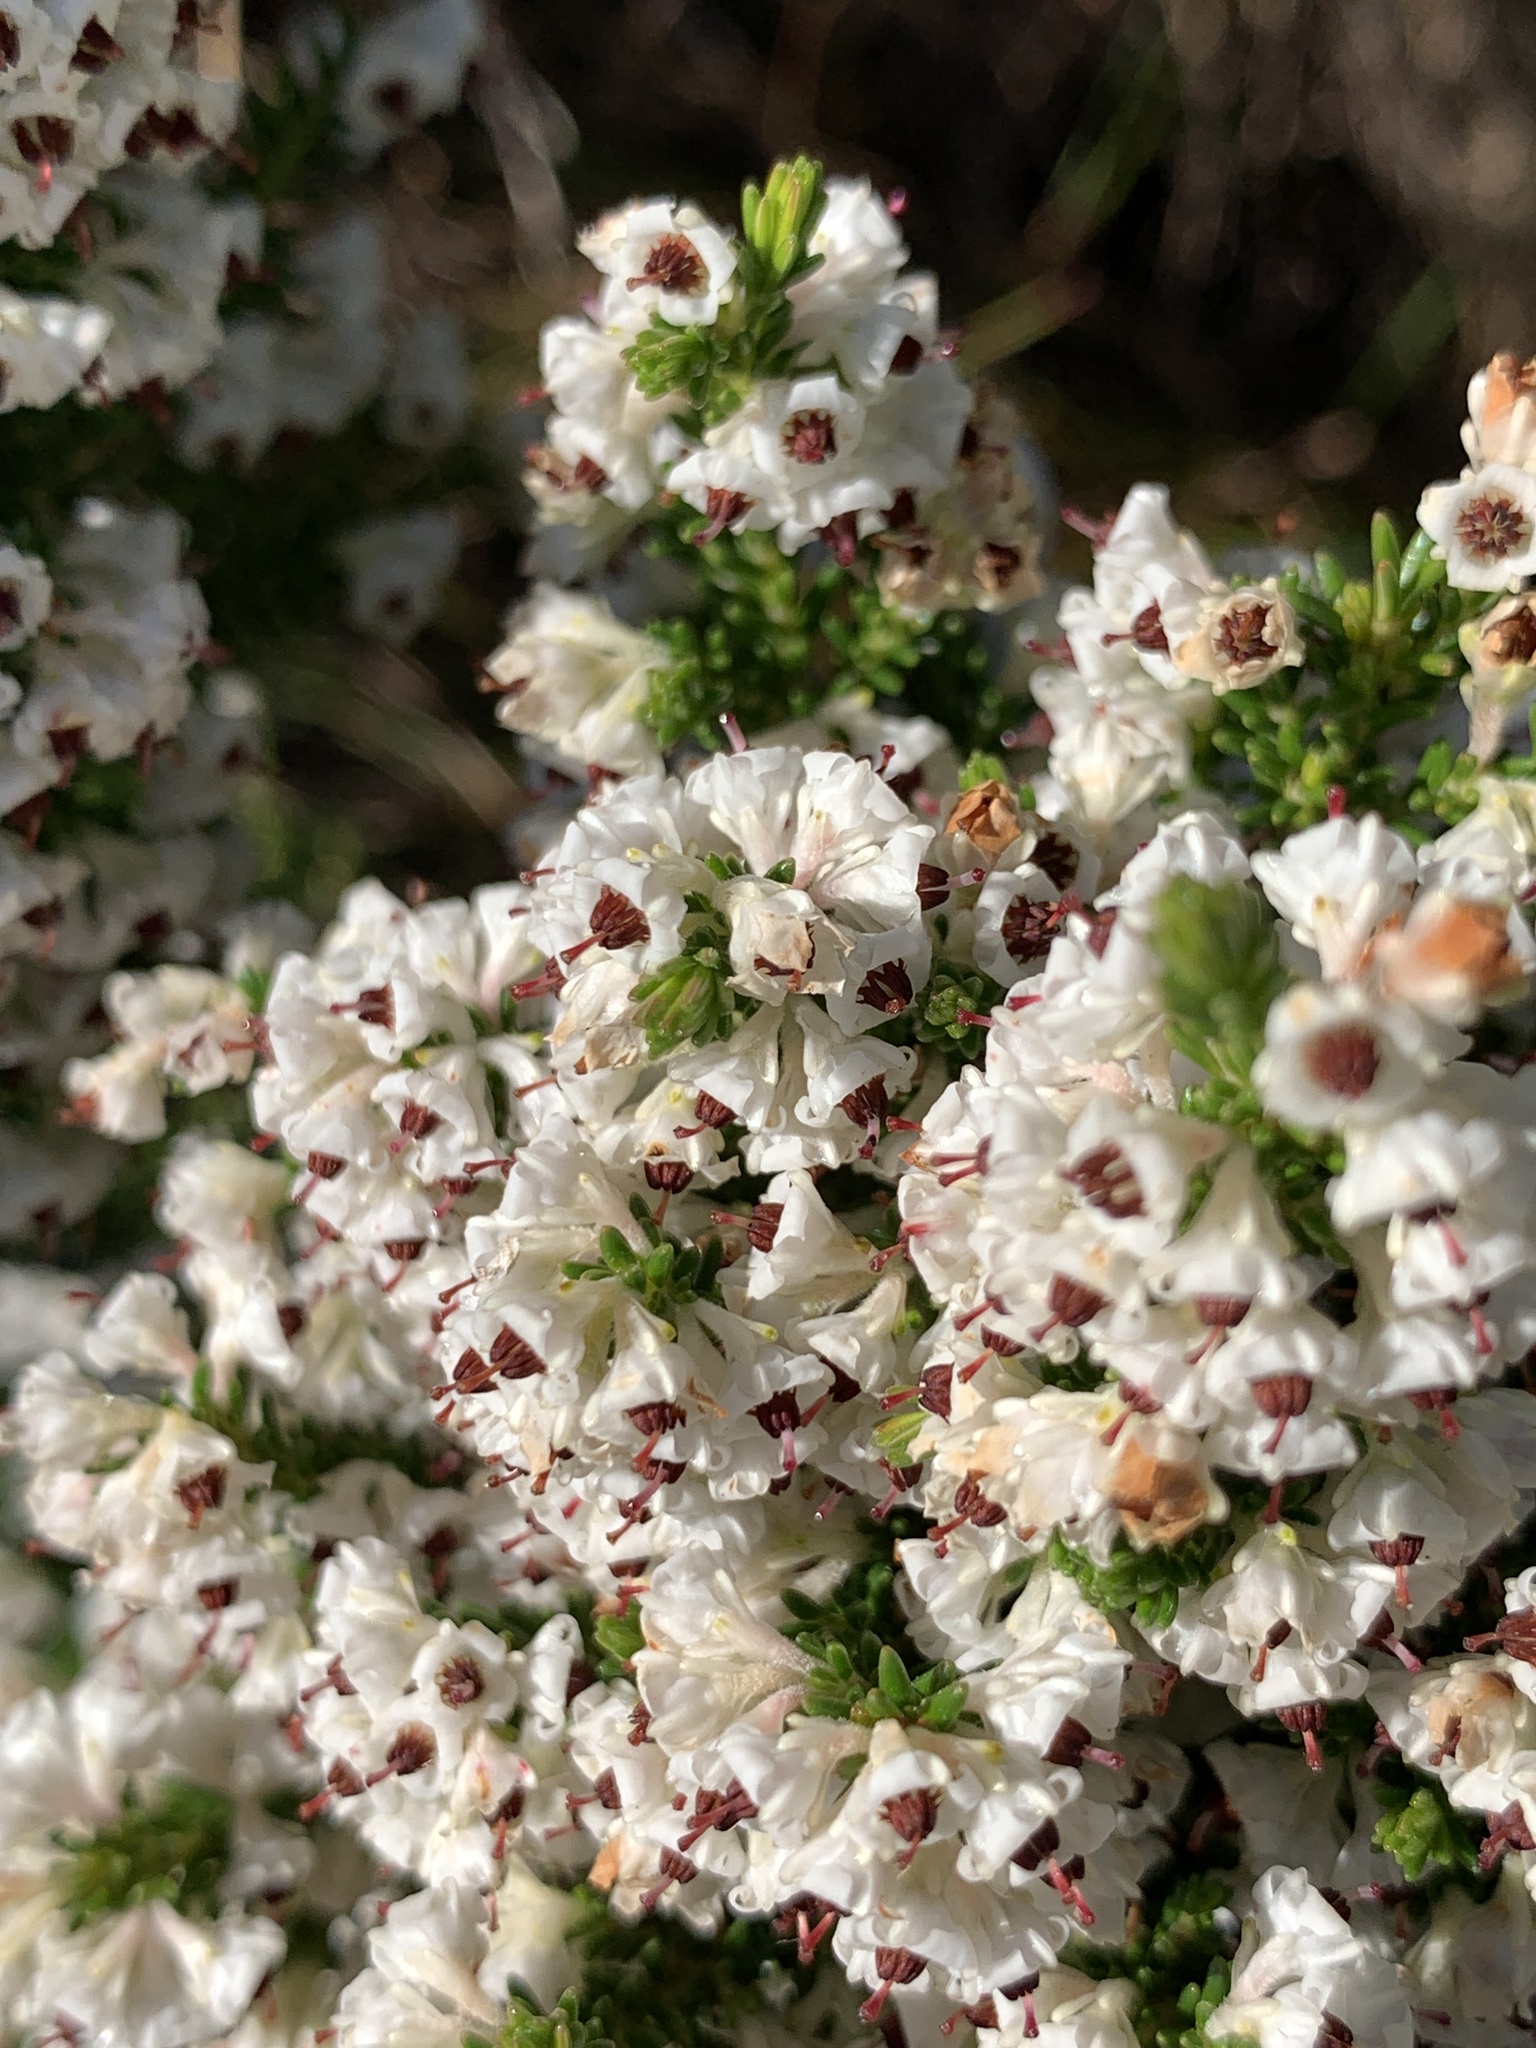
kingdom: Plantae
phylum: Tracheophyta
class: Magnoliopsida
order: Ericales
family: Ericaceae
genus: Erica
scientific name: Erica calycina
